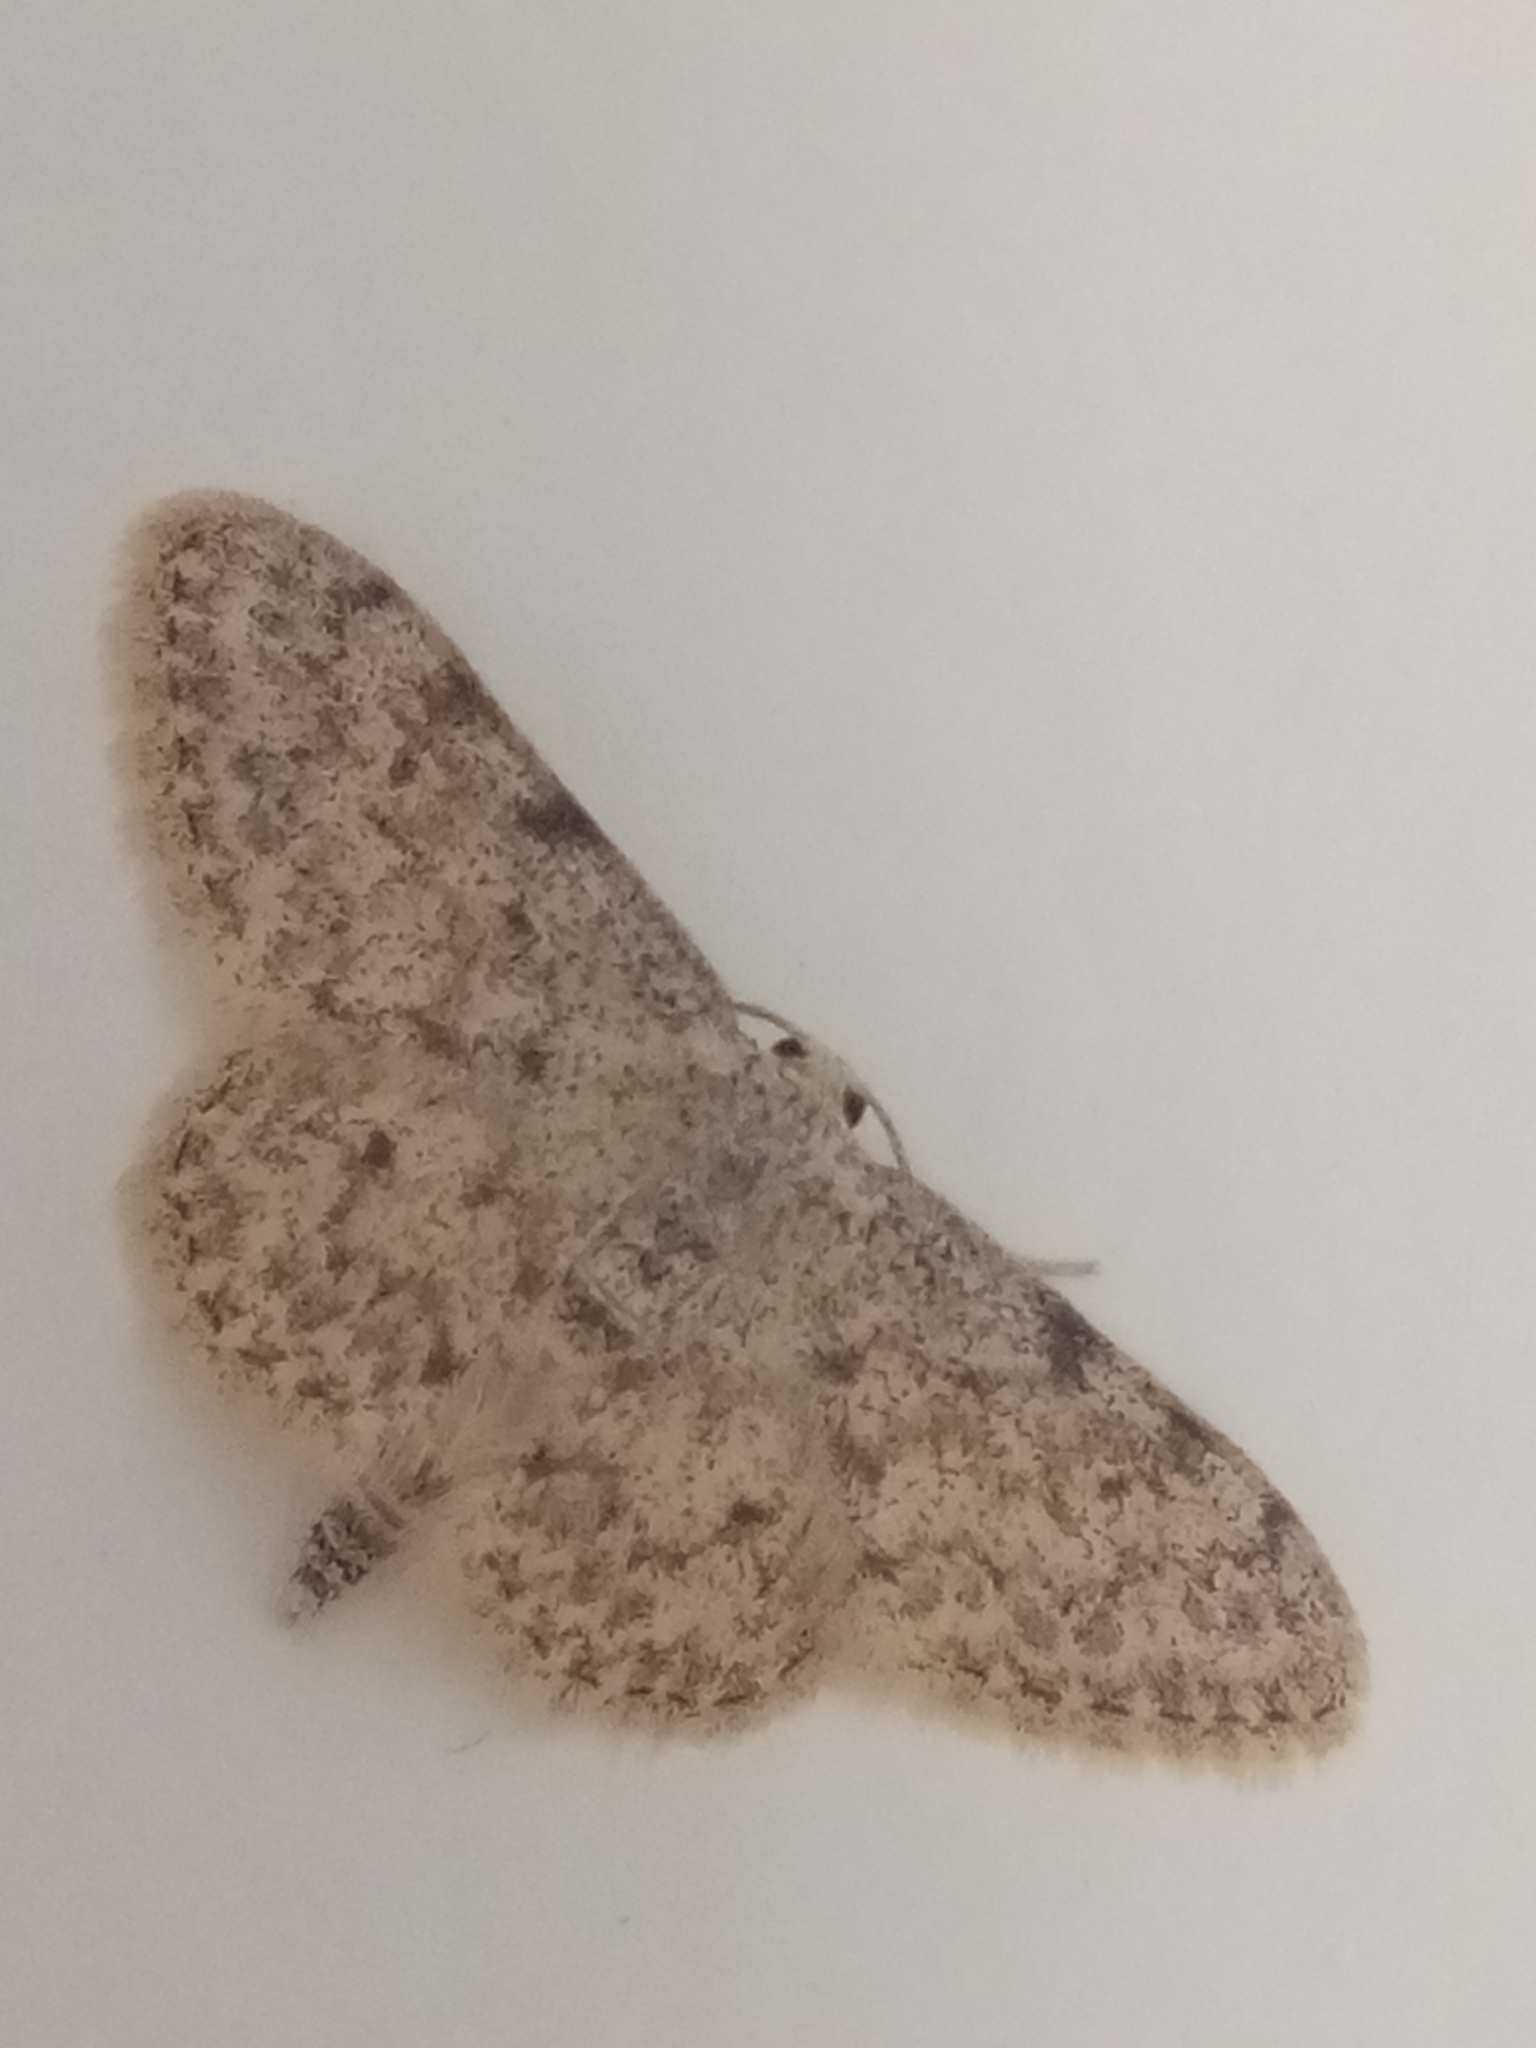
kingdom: Animalia
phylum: Arthropoda
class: Insecta
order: Lepidoptera
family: Geometridae
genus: Idaea
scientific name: Idaea cervantaria
